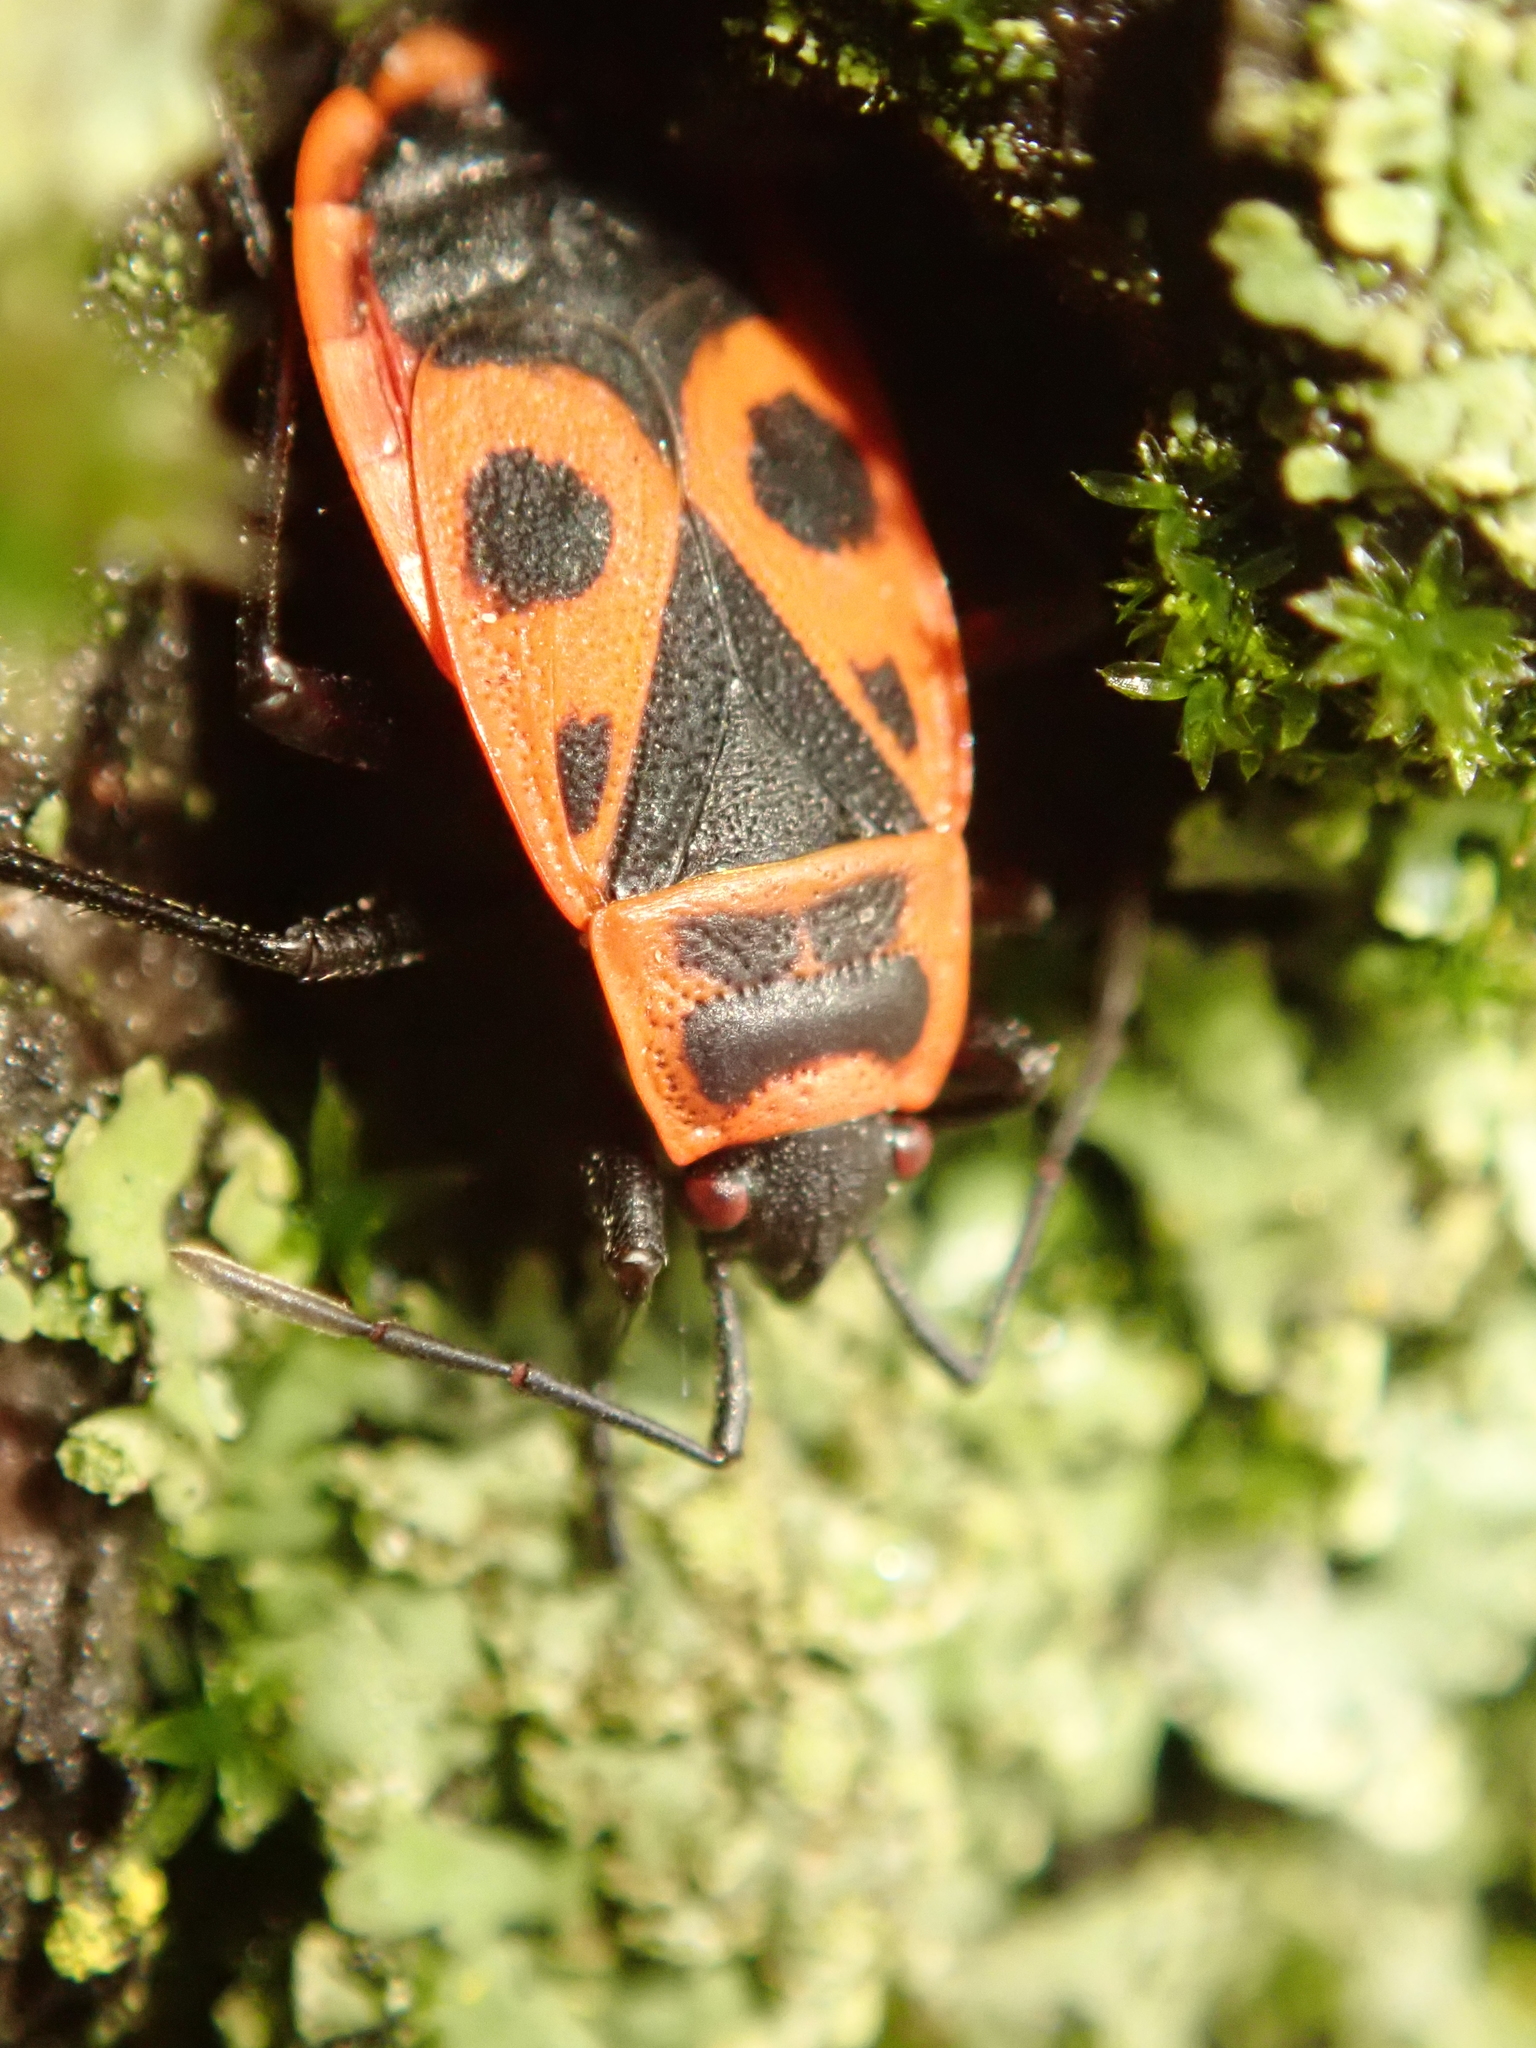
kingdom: Animalia
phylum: Arthropoda
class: Insecta
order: Hemiptera
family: Pyrrhocoridae
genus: Pyrrhocoris
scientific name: Pyrrhocoris apterus
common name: Firebug
